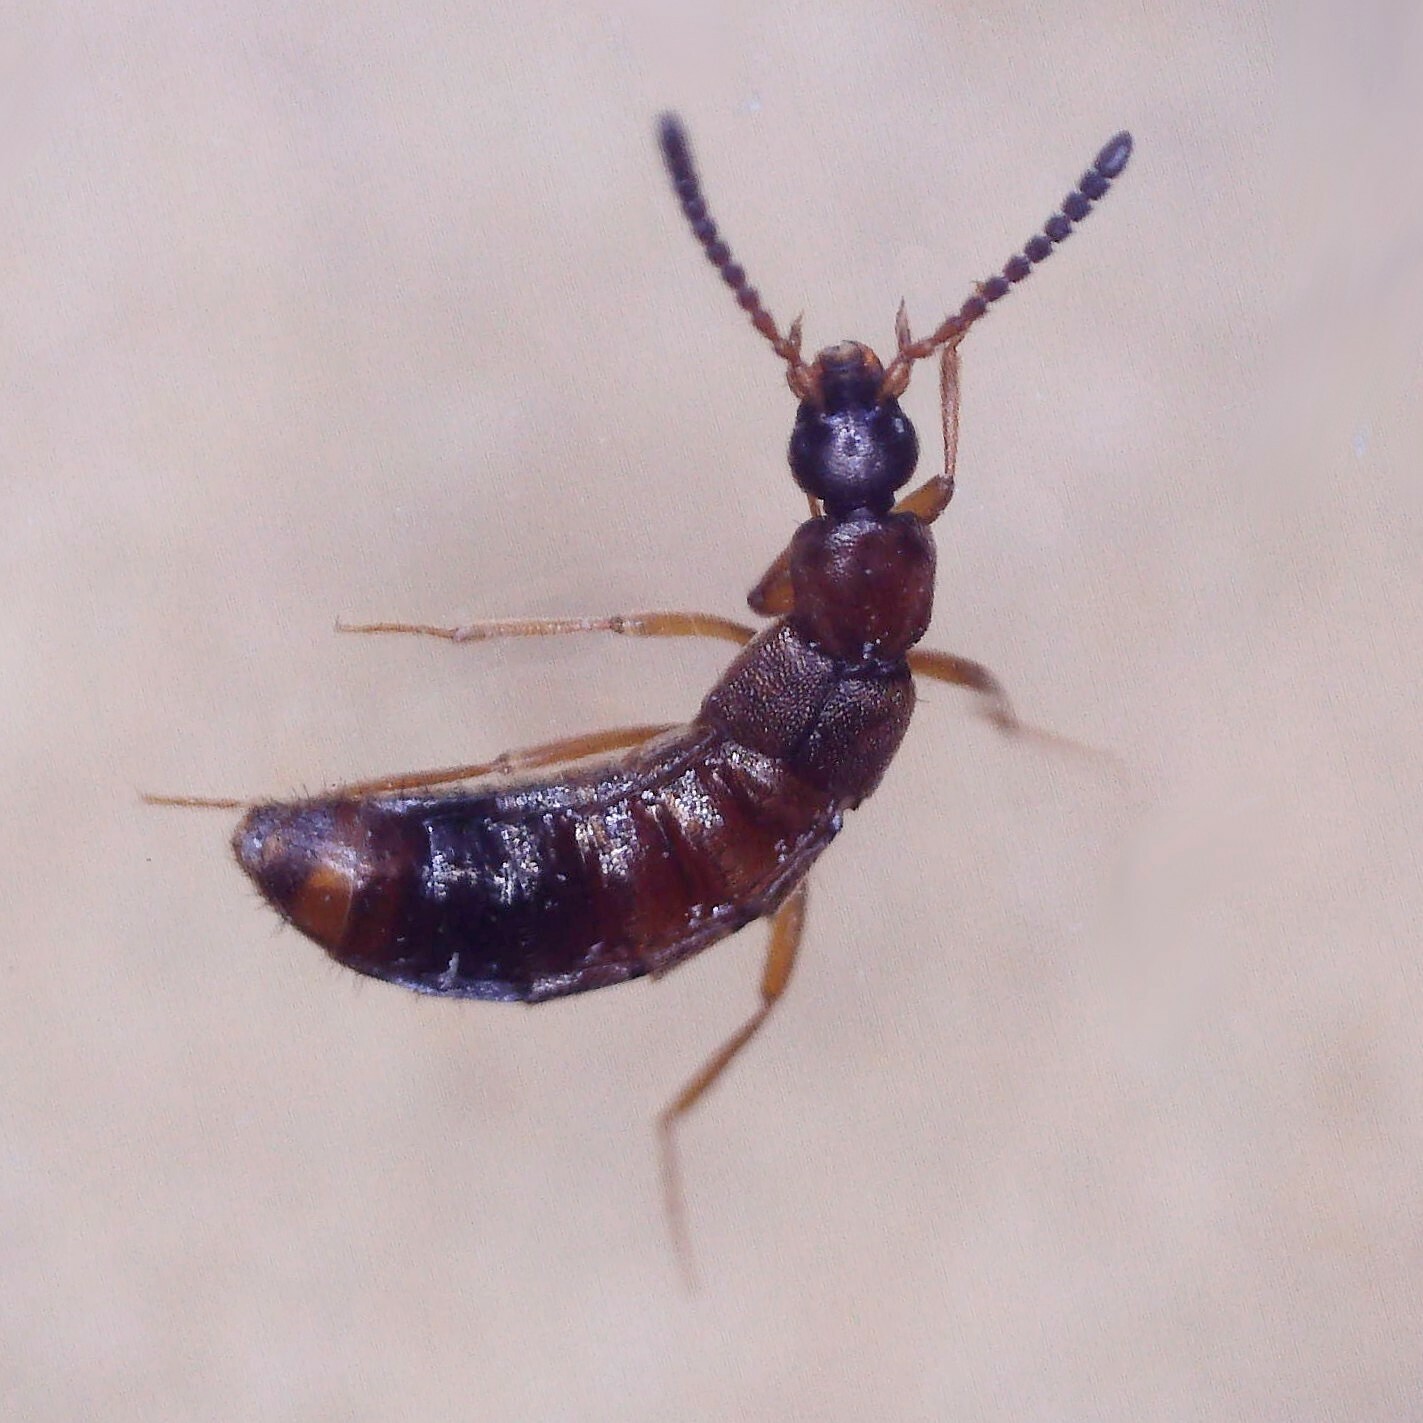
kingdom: Animalia
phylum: Arthropoda
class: Insecta
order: Coleoptera
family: Staphylinidae
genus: Drusilla
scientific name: Drusilla canaliculata
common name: Rove beetle
